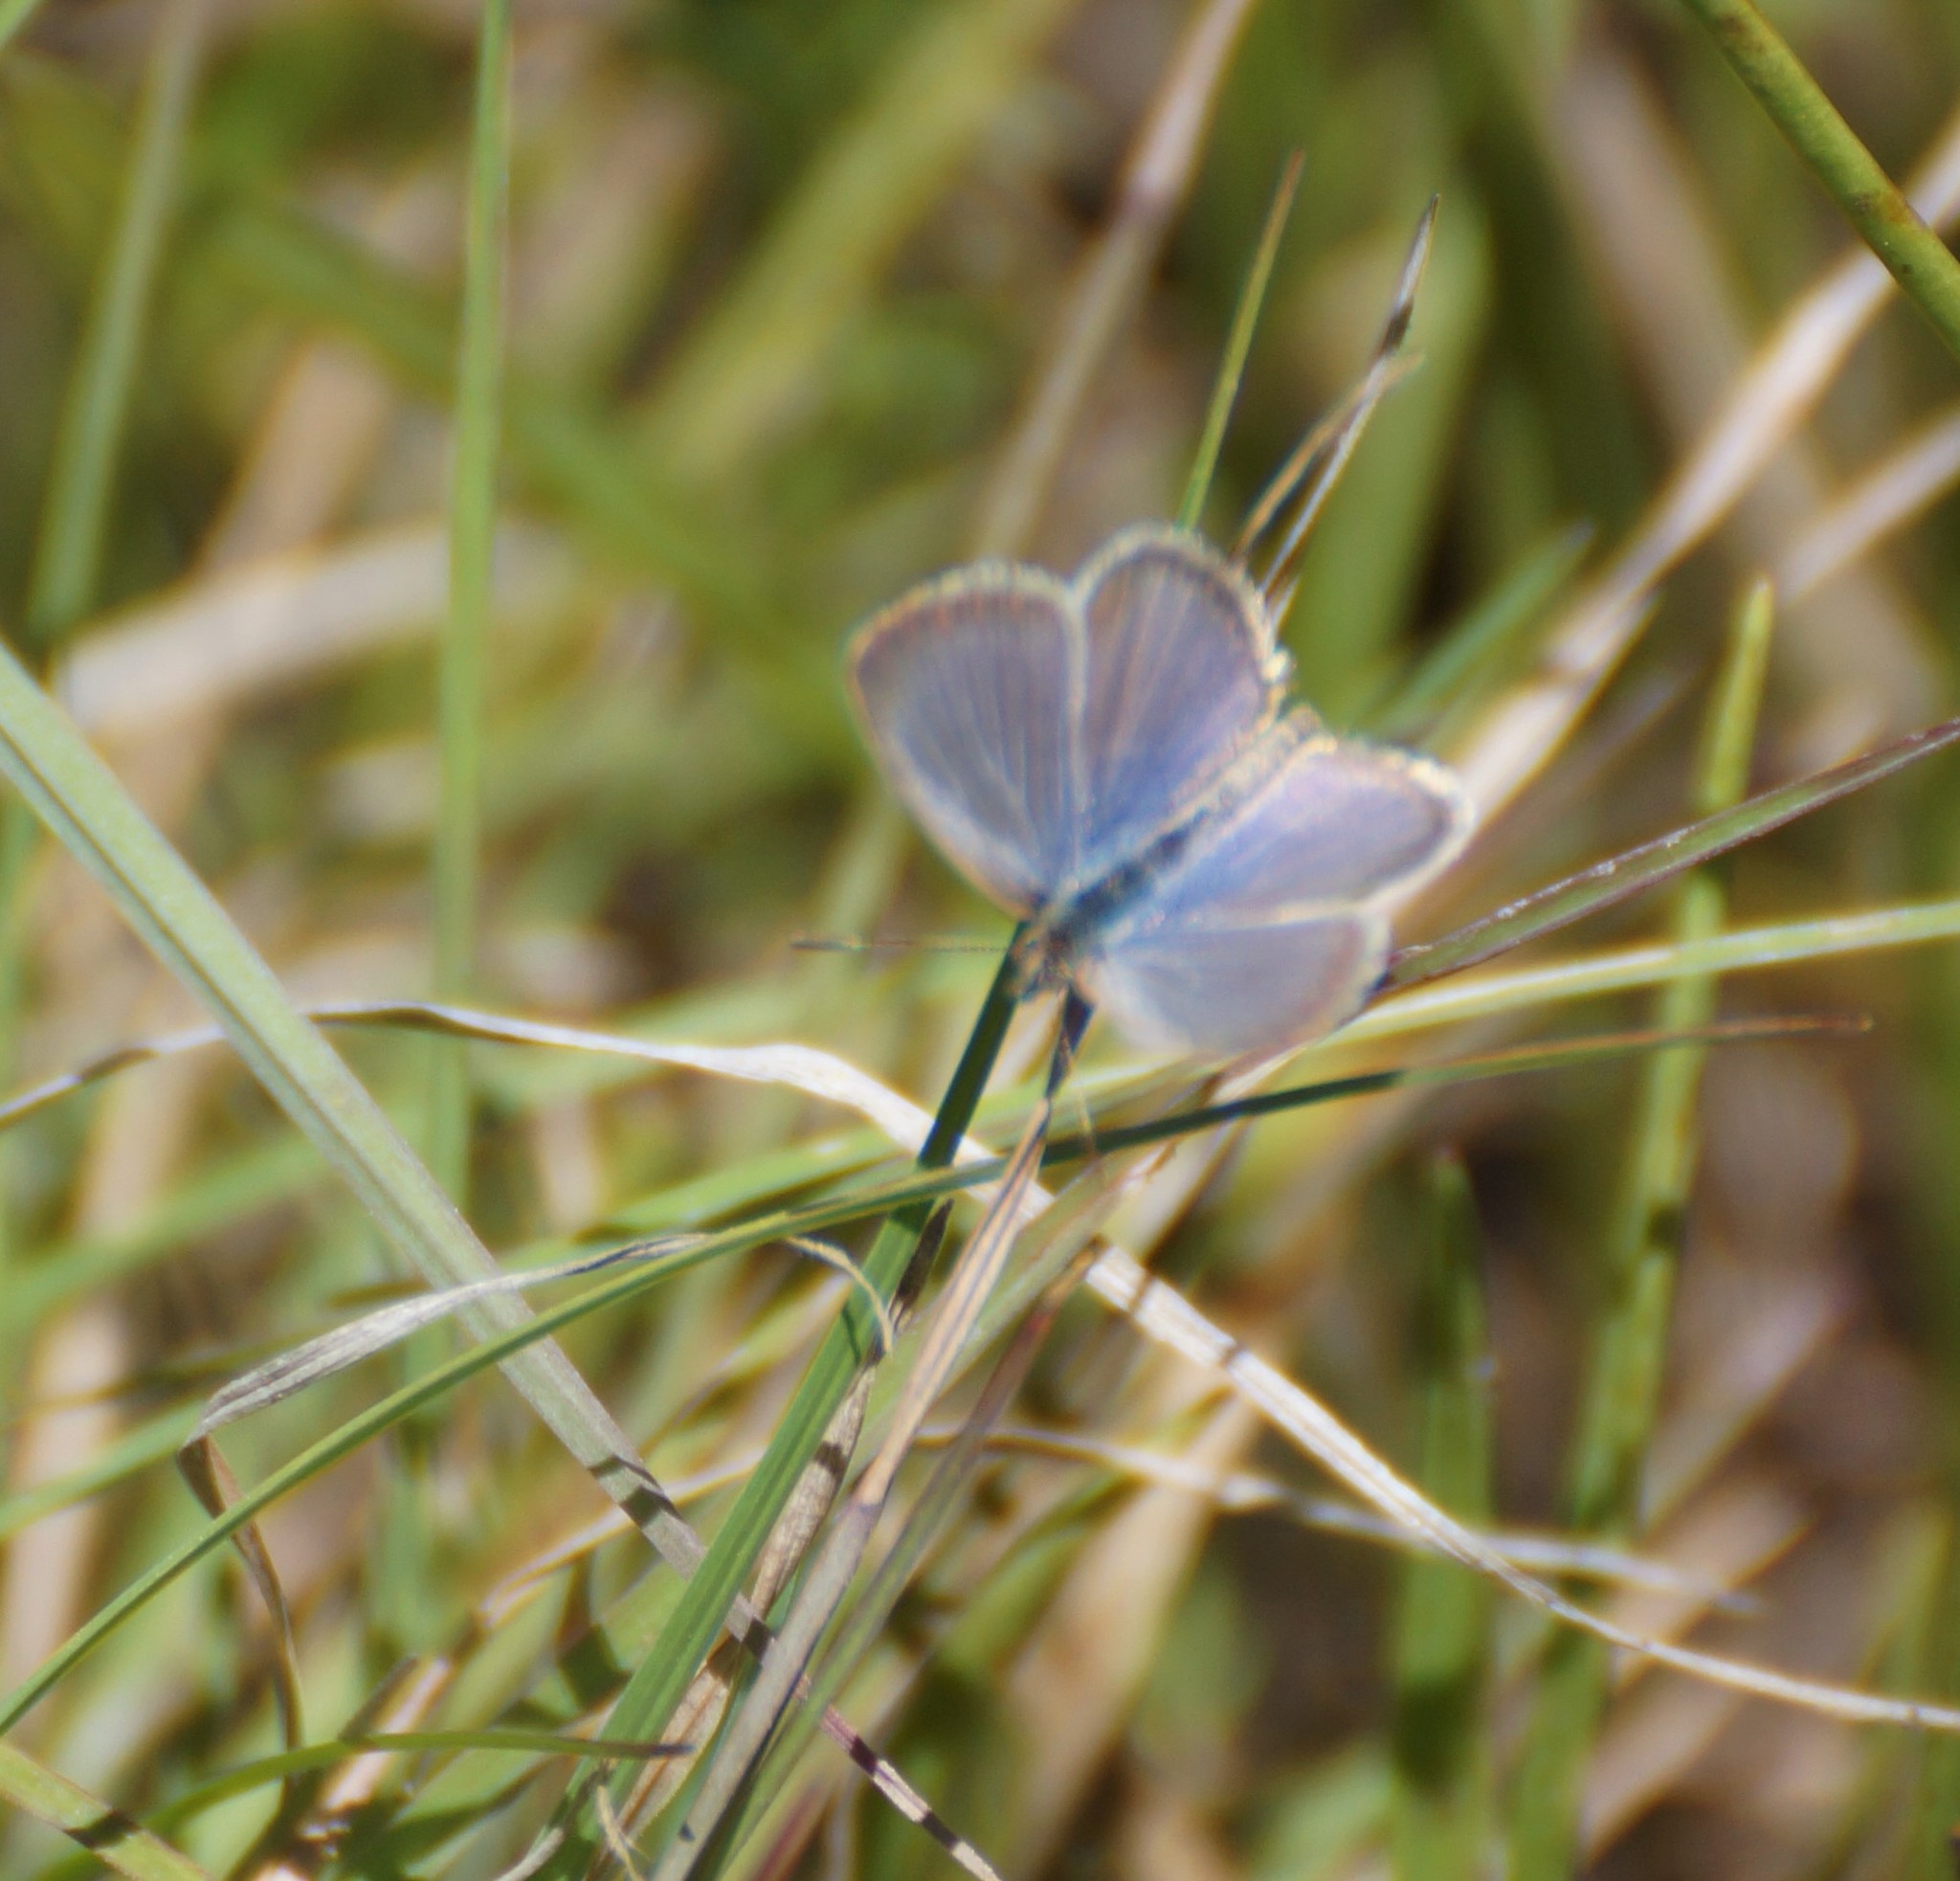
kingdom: Animalia
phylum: Arthropoda
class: Insecta
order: Lepidoptera
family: Lycaenidae
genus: Zizina
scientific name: Zizina labradus
